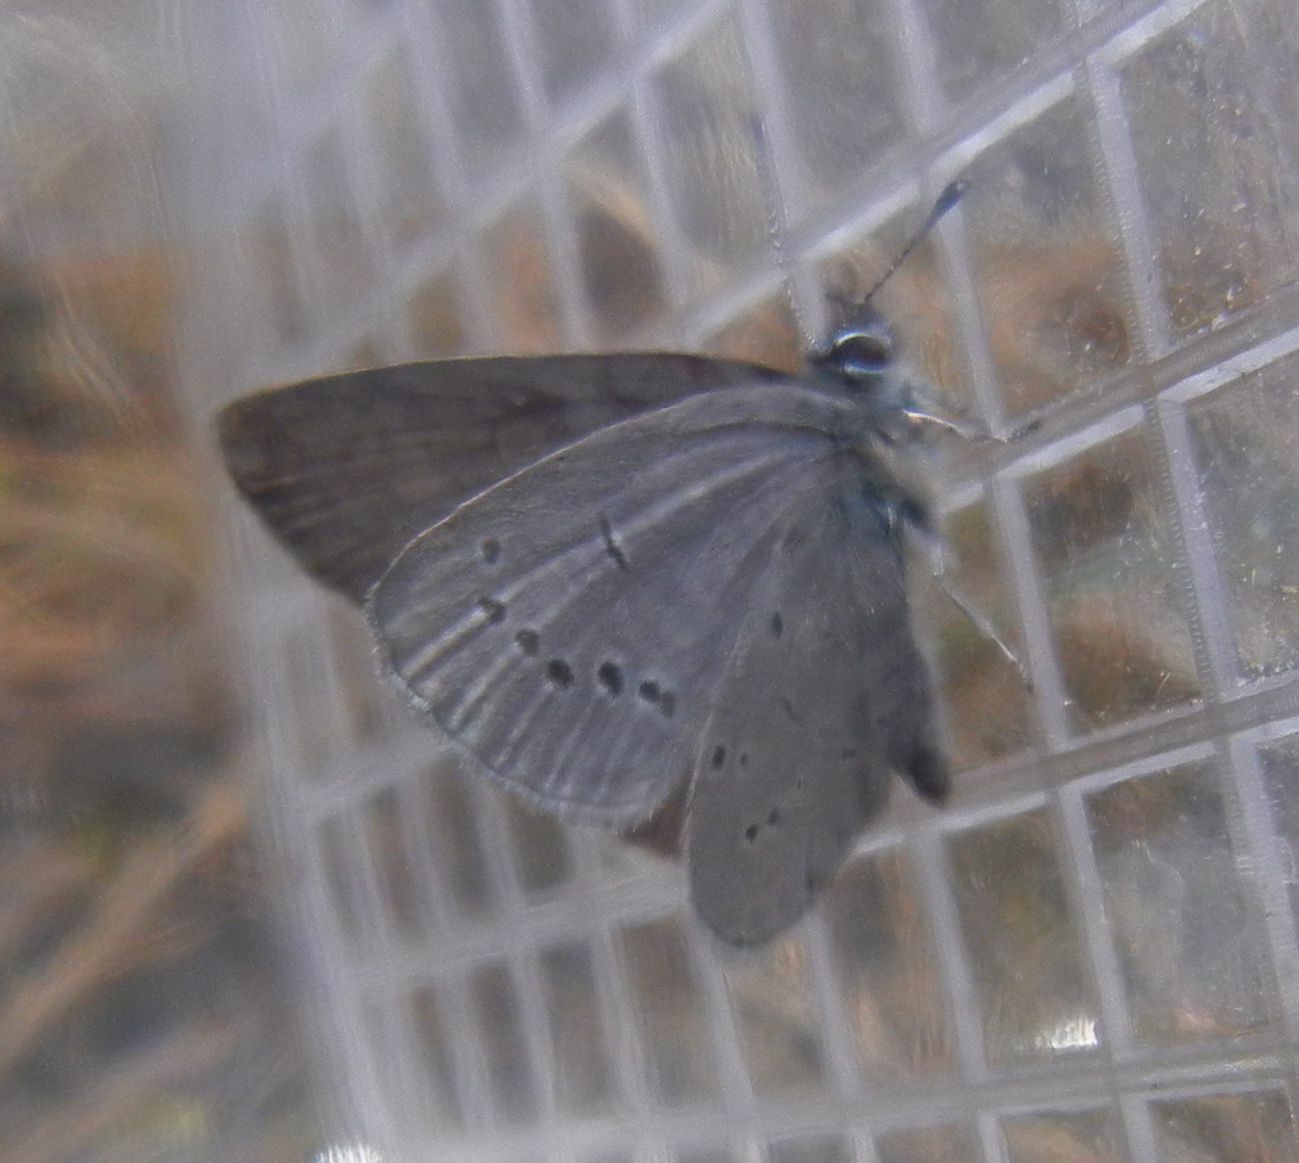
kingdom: Animalia
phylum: Arthropoda
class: Insecta
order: Lepidoptera
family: Lycaenidae
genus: Cupido
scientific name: Cupido minimus
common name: Small blue
